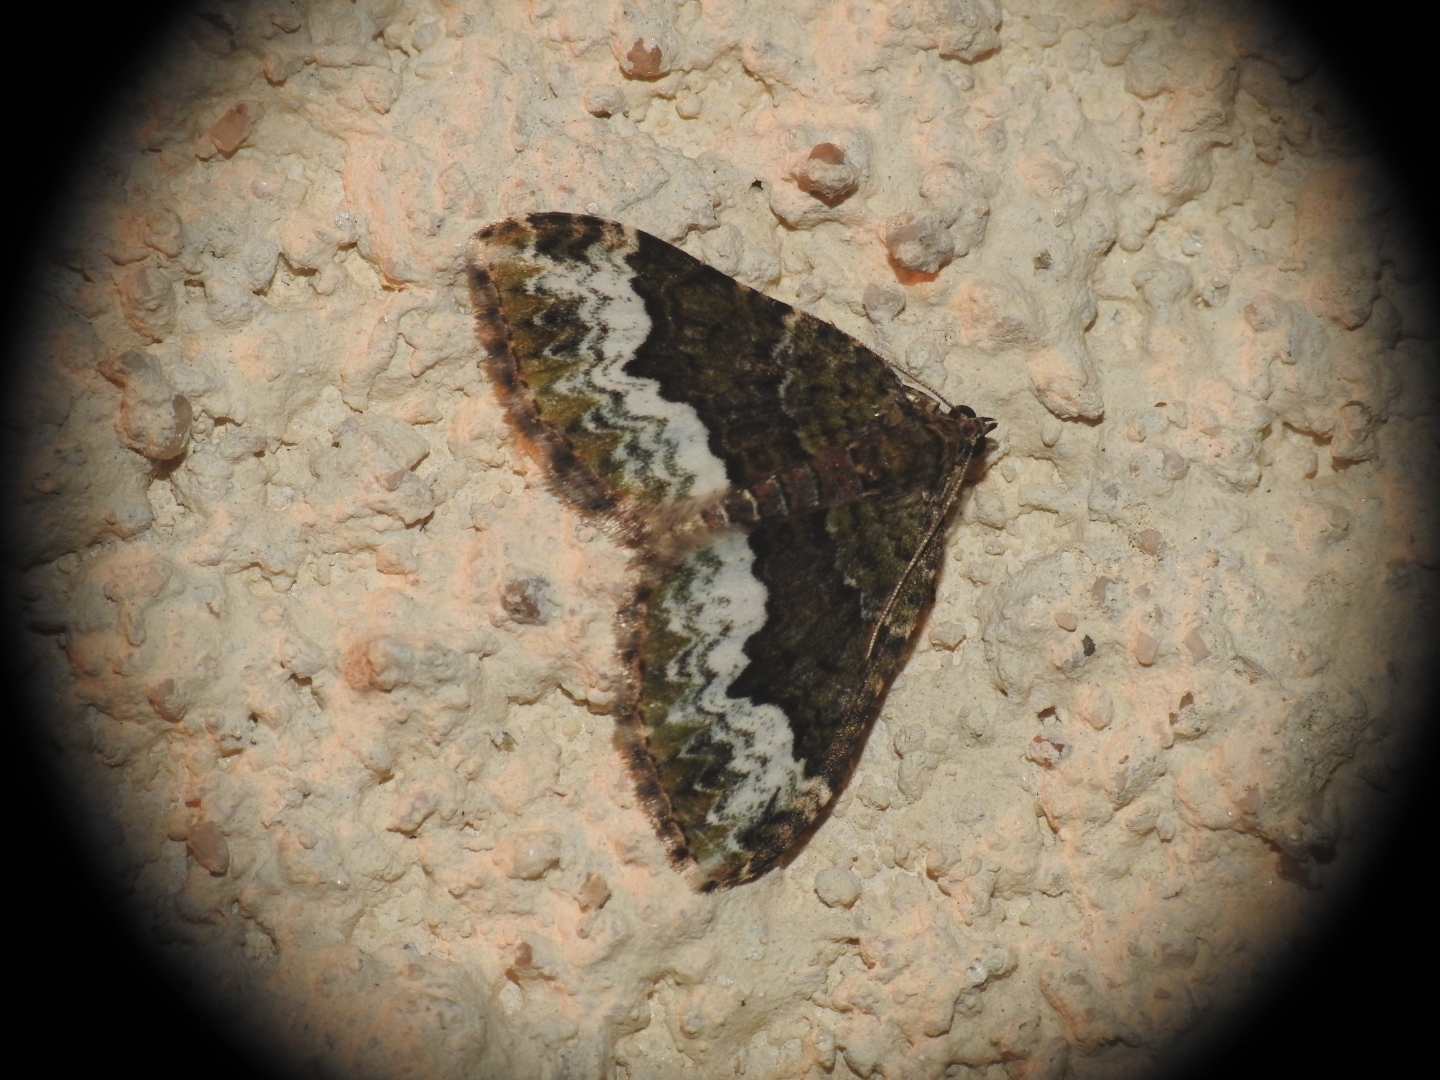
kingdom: Animalia
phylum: Arthropoda
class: Insecta
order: Lepidoptera
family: Geometridae
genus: Euphyia
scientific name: Euphyia biangulata
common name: Cloaked carpet
